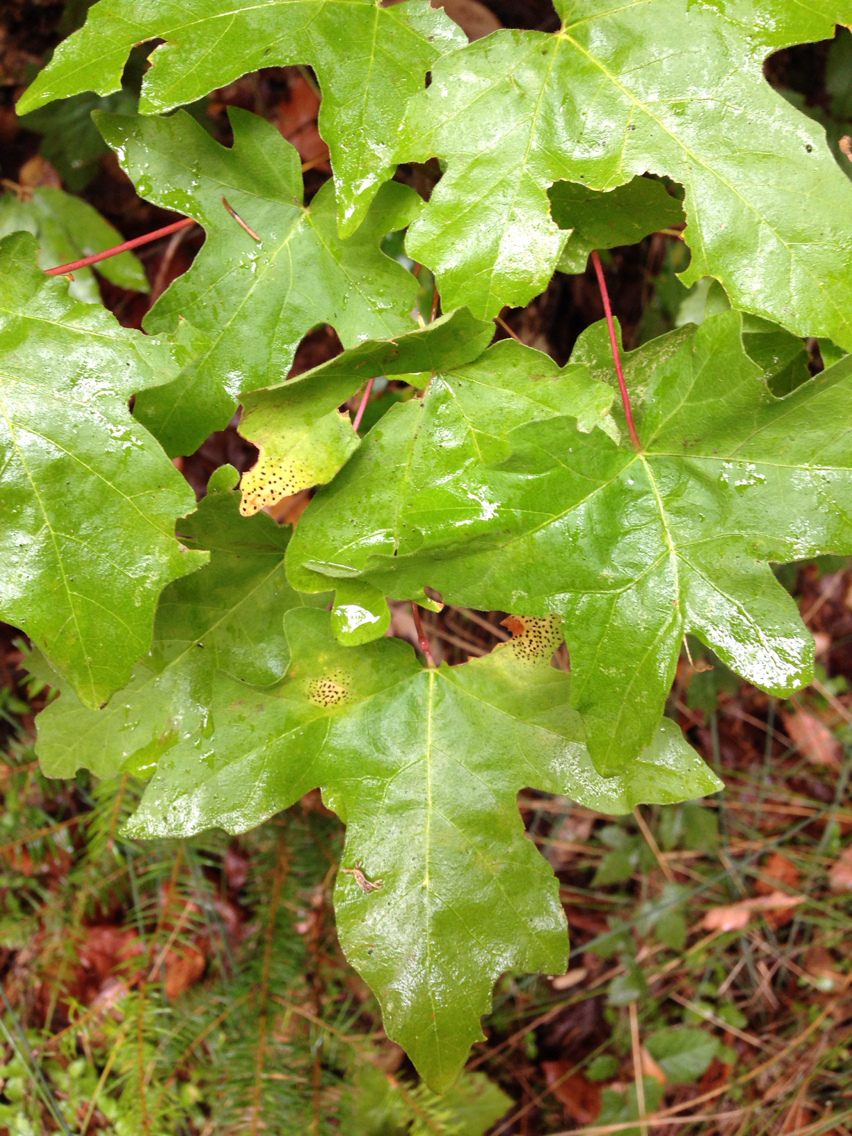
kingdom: Plantae
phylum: Tracheophyta
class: Magnoliopsida
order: Sapindales
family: Sapindaceae
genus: Acer
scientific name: Acer macrophyllum
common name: Oregon maple
